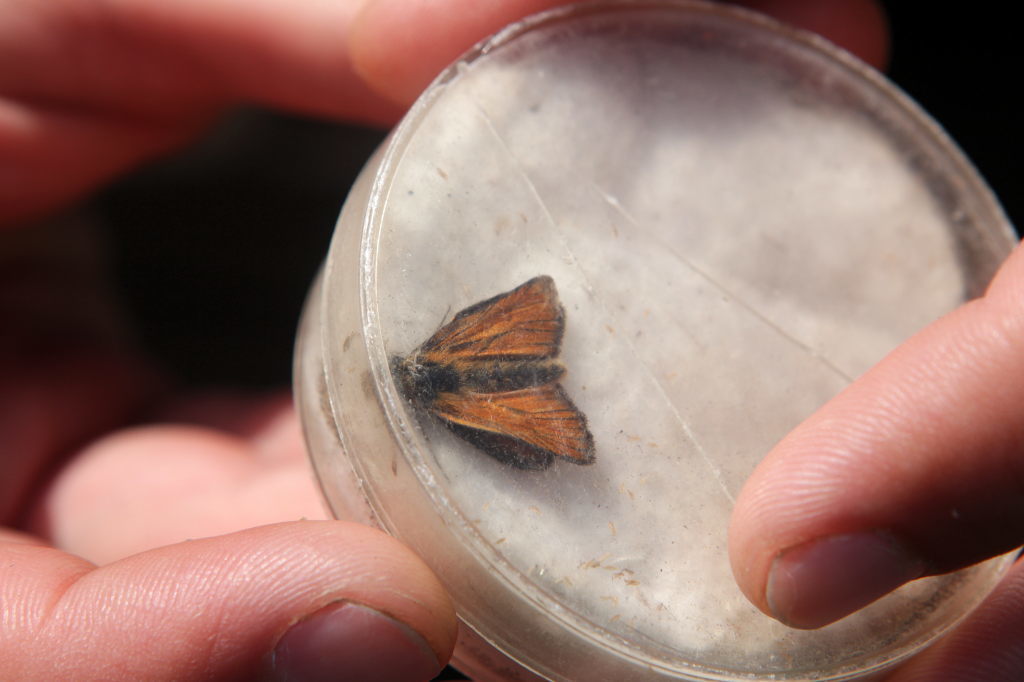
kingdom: Animalia
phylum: Arthropoda
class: Insecta
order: Lepidoptera
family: Hesperiidae
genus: Thymelicus
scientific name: Thymelicus sylvestris
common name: Small skipper
